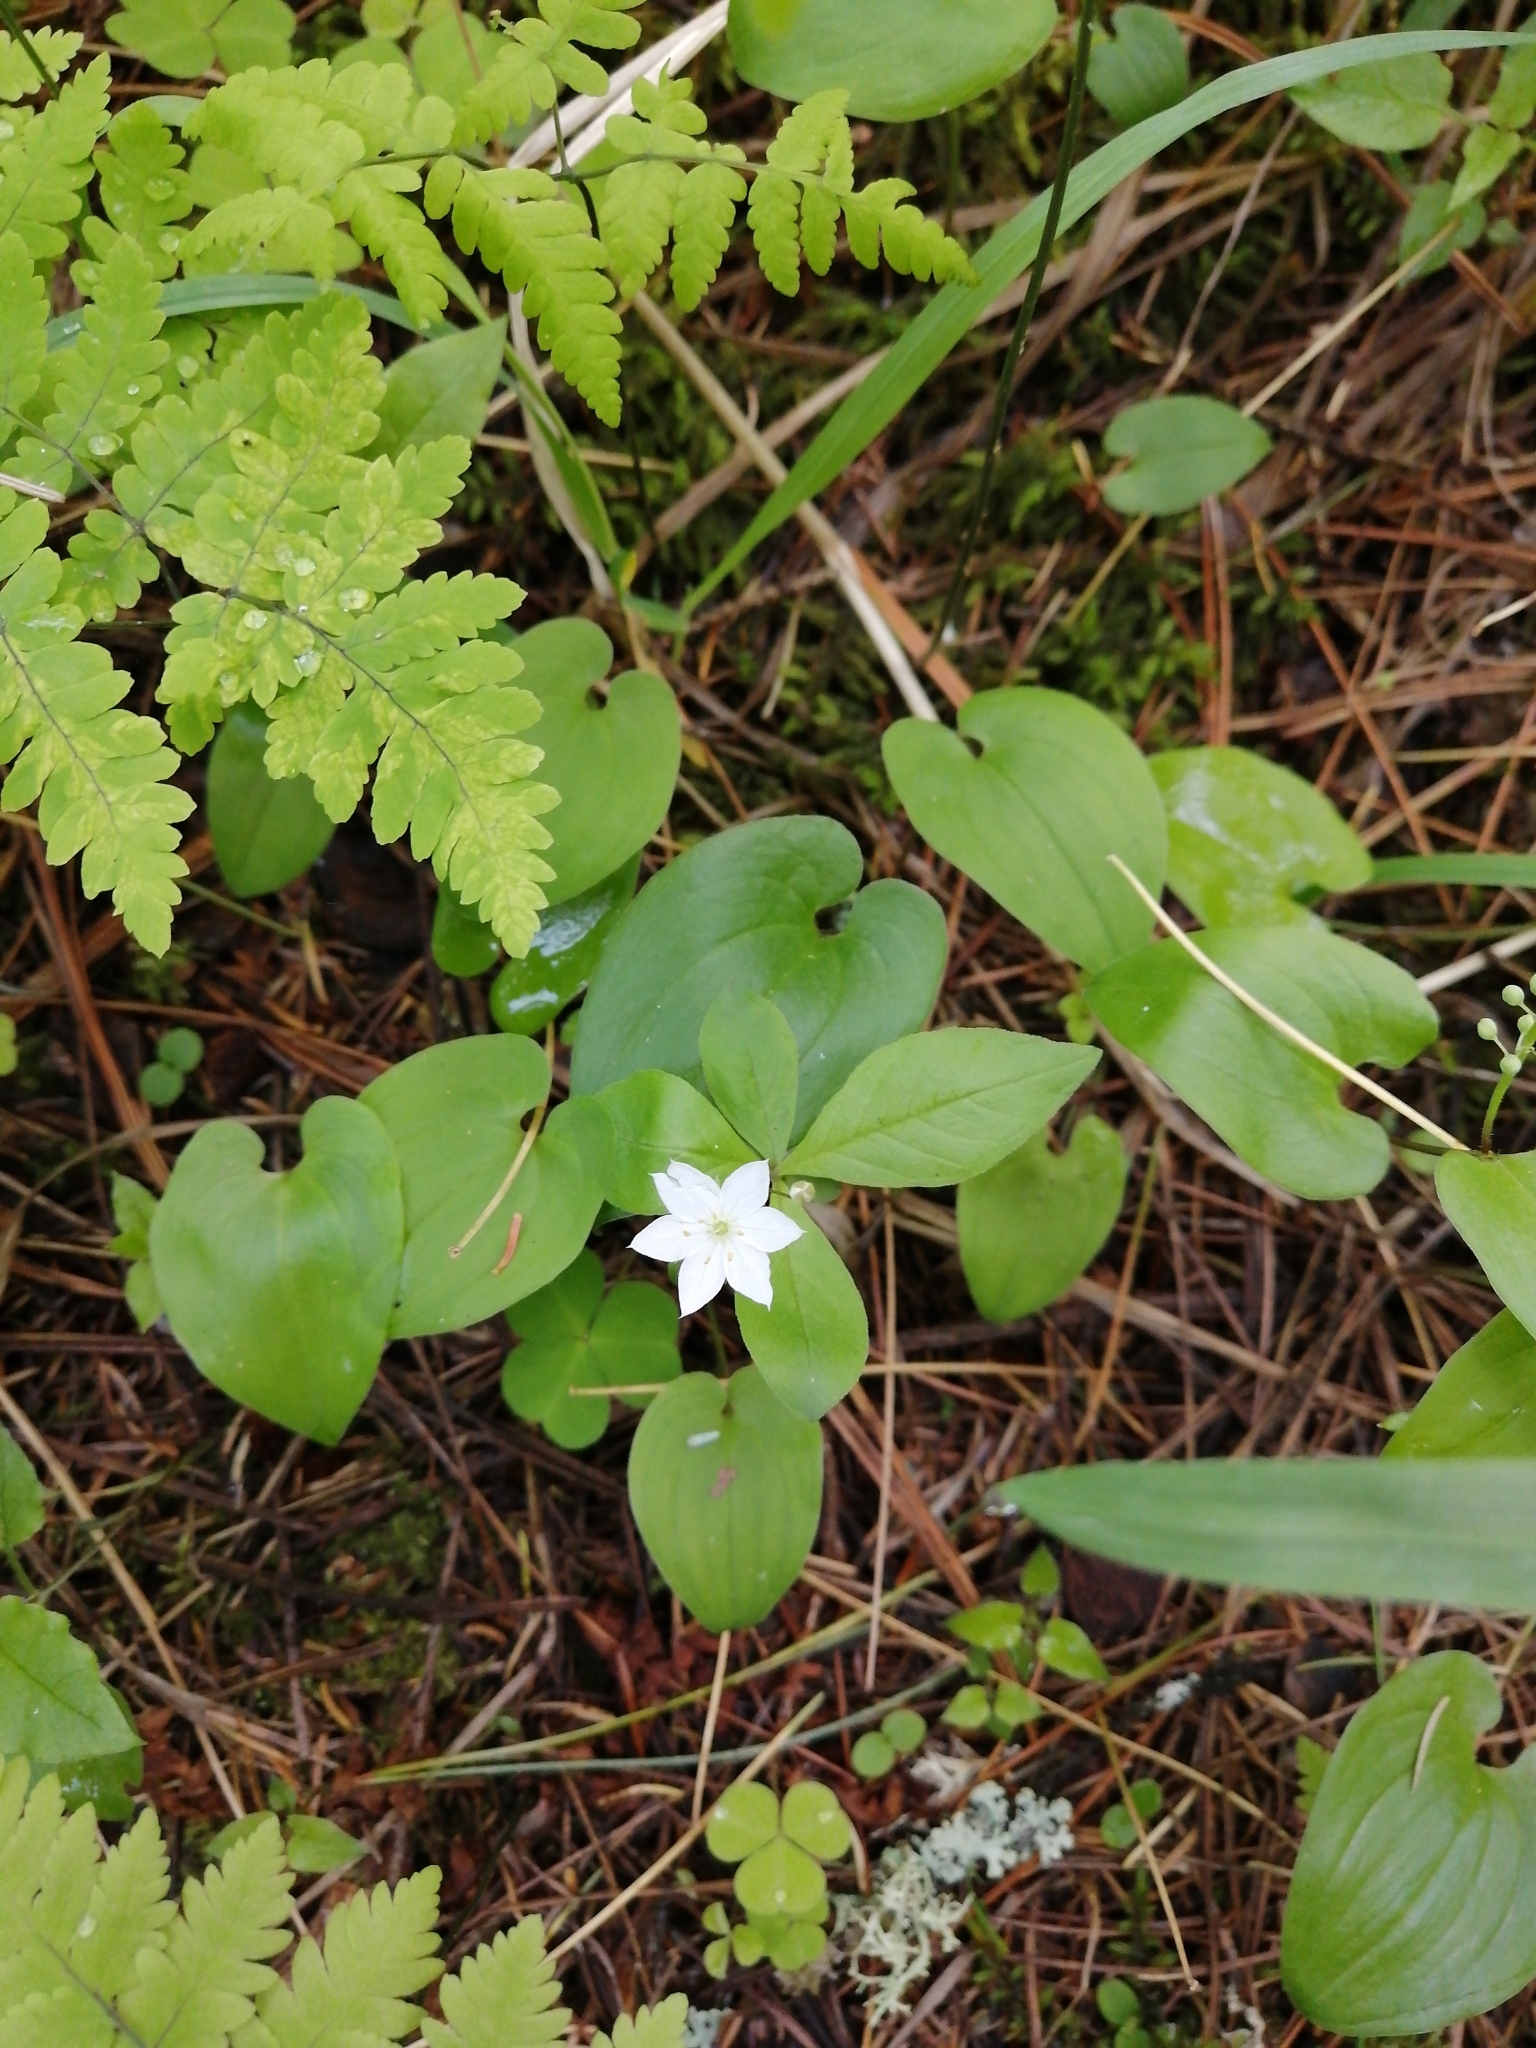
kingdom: Plantae
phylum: Tracheophyta
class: Magnoliopsida
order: Ericales
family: Primulaceae
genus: Lysimachia
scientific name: Lysimachia europaea
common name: Arctic starflower
